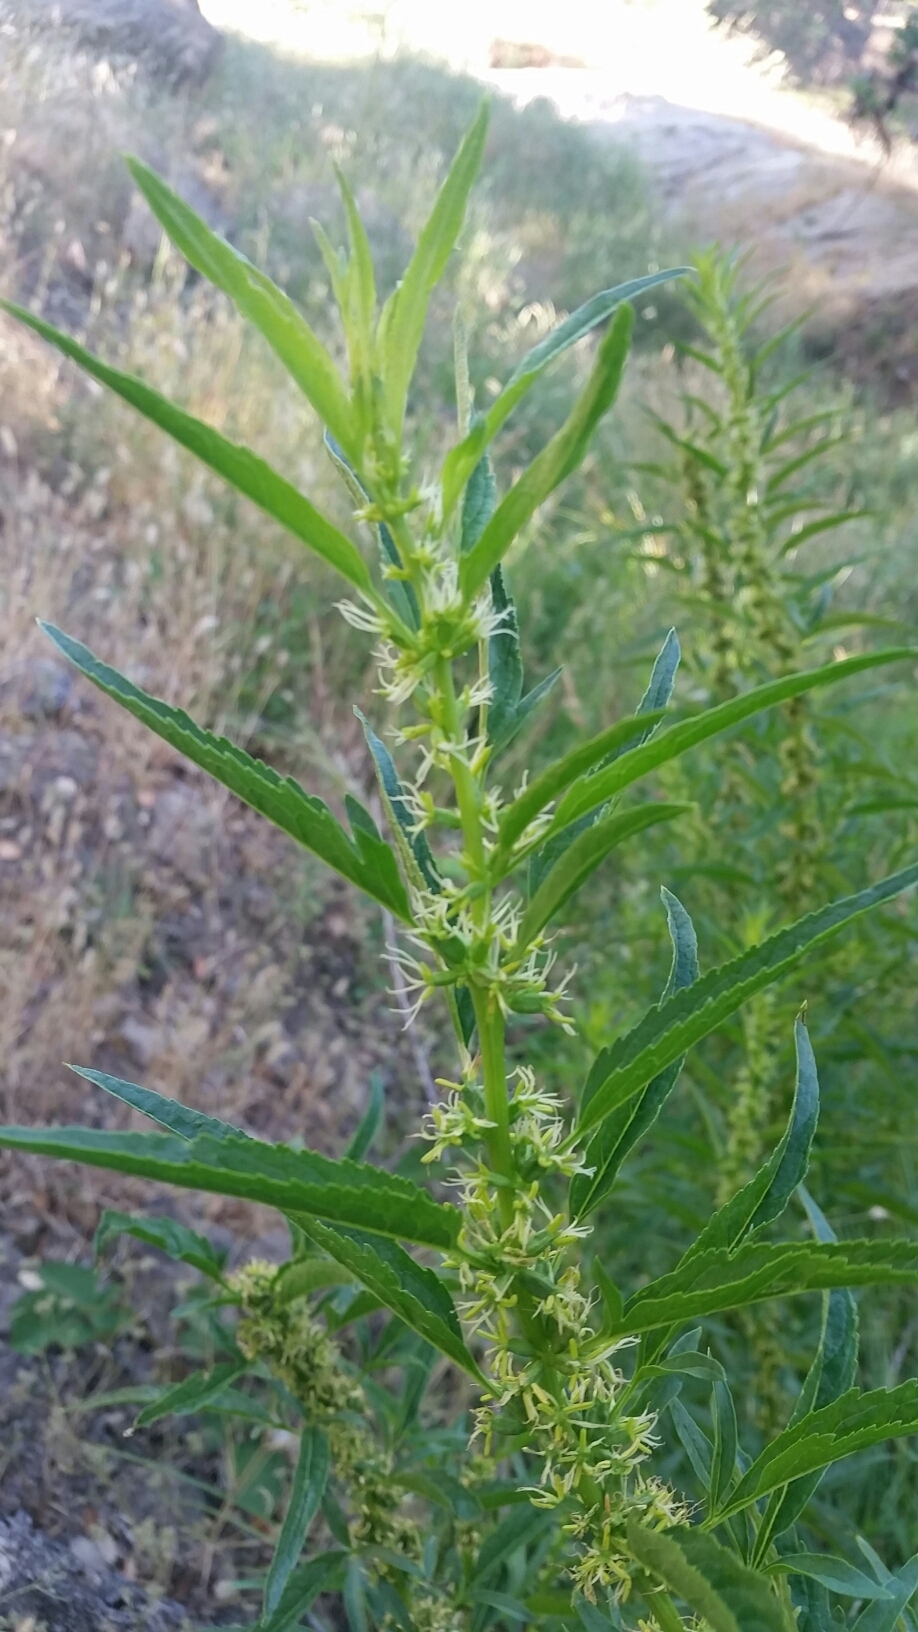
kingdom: Plantae
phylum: Tracheophyta
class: Magnoliopsida
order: Cucurbitales
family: Datiscaceae
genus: Datisca
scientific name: Datisca glomerata
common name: Durango-root
